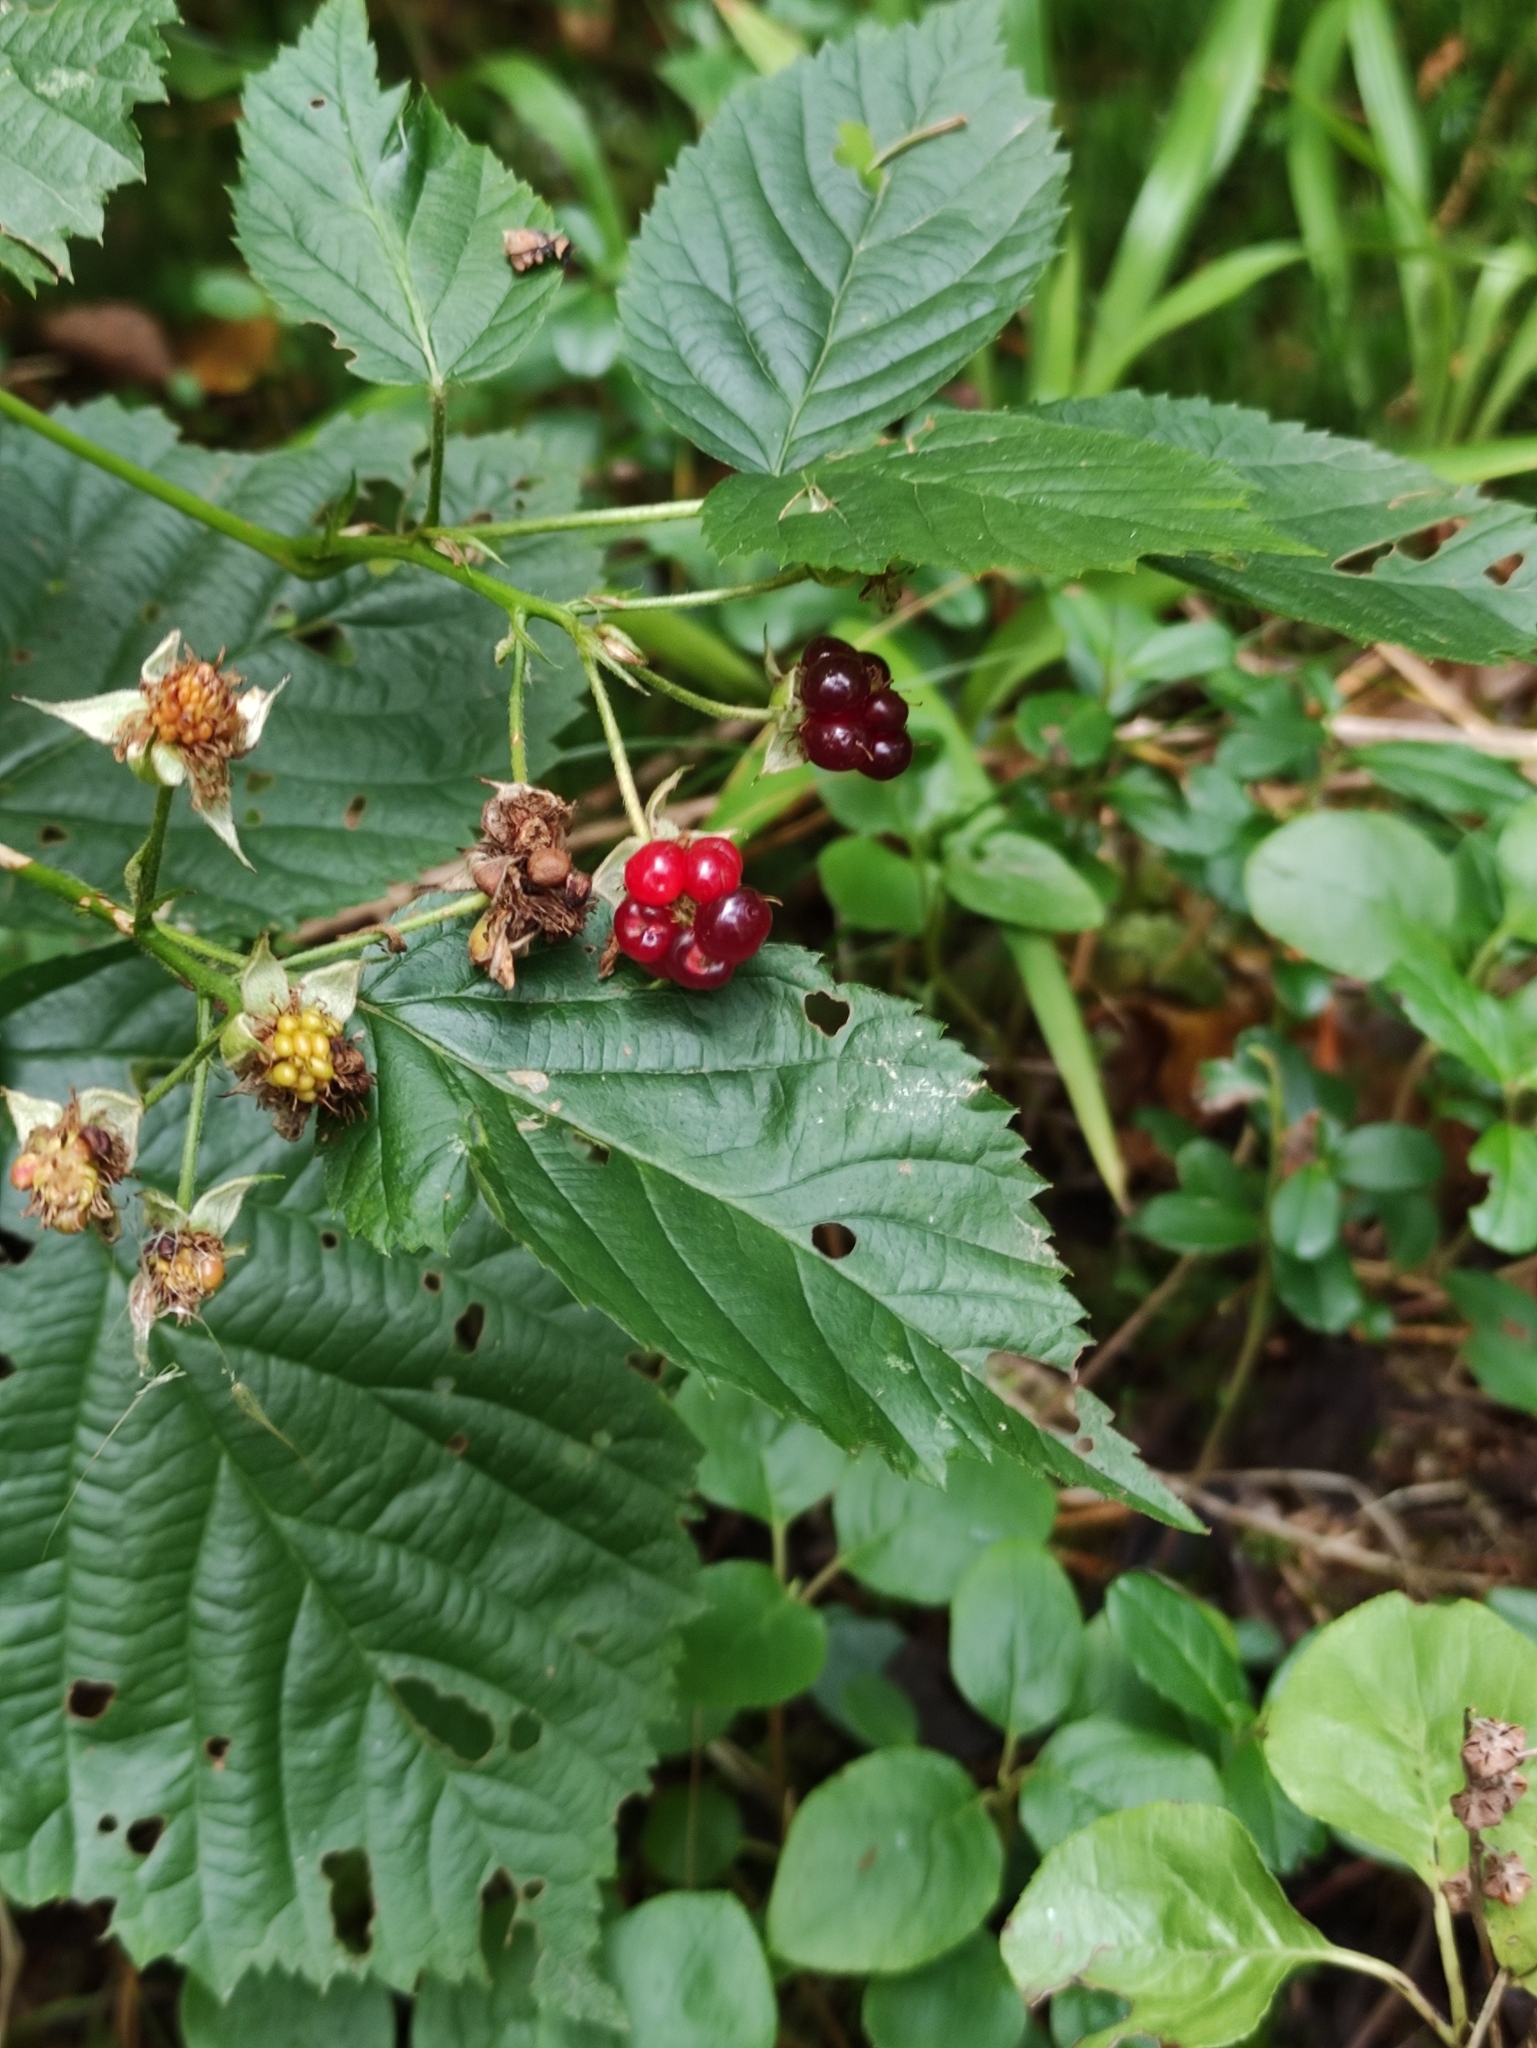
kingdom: Plantae
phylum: Tracheophyta
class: Magnoliopsida
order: Rosales
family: Rosaceae
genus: Rubus
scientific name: Rubus polonicus
